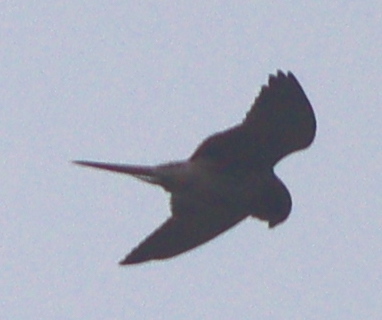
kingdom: Animalia
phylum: Chordata
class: Aves
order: Falconiformes
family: Falconidae
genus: Falco
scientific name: Falco tinnunculus
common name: Common kestrel
